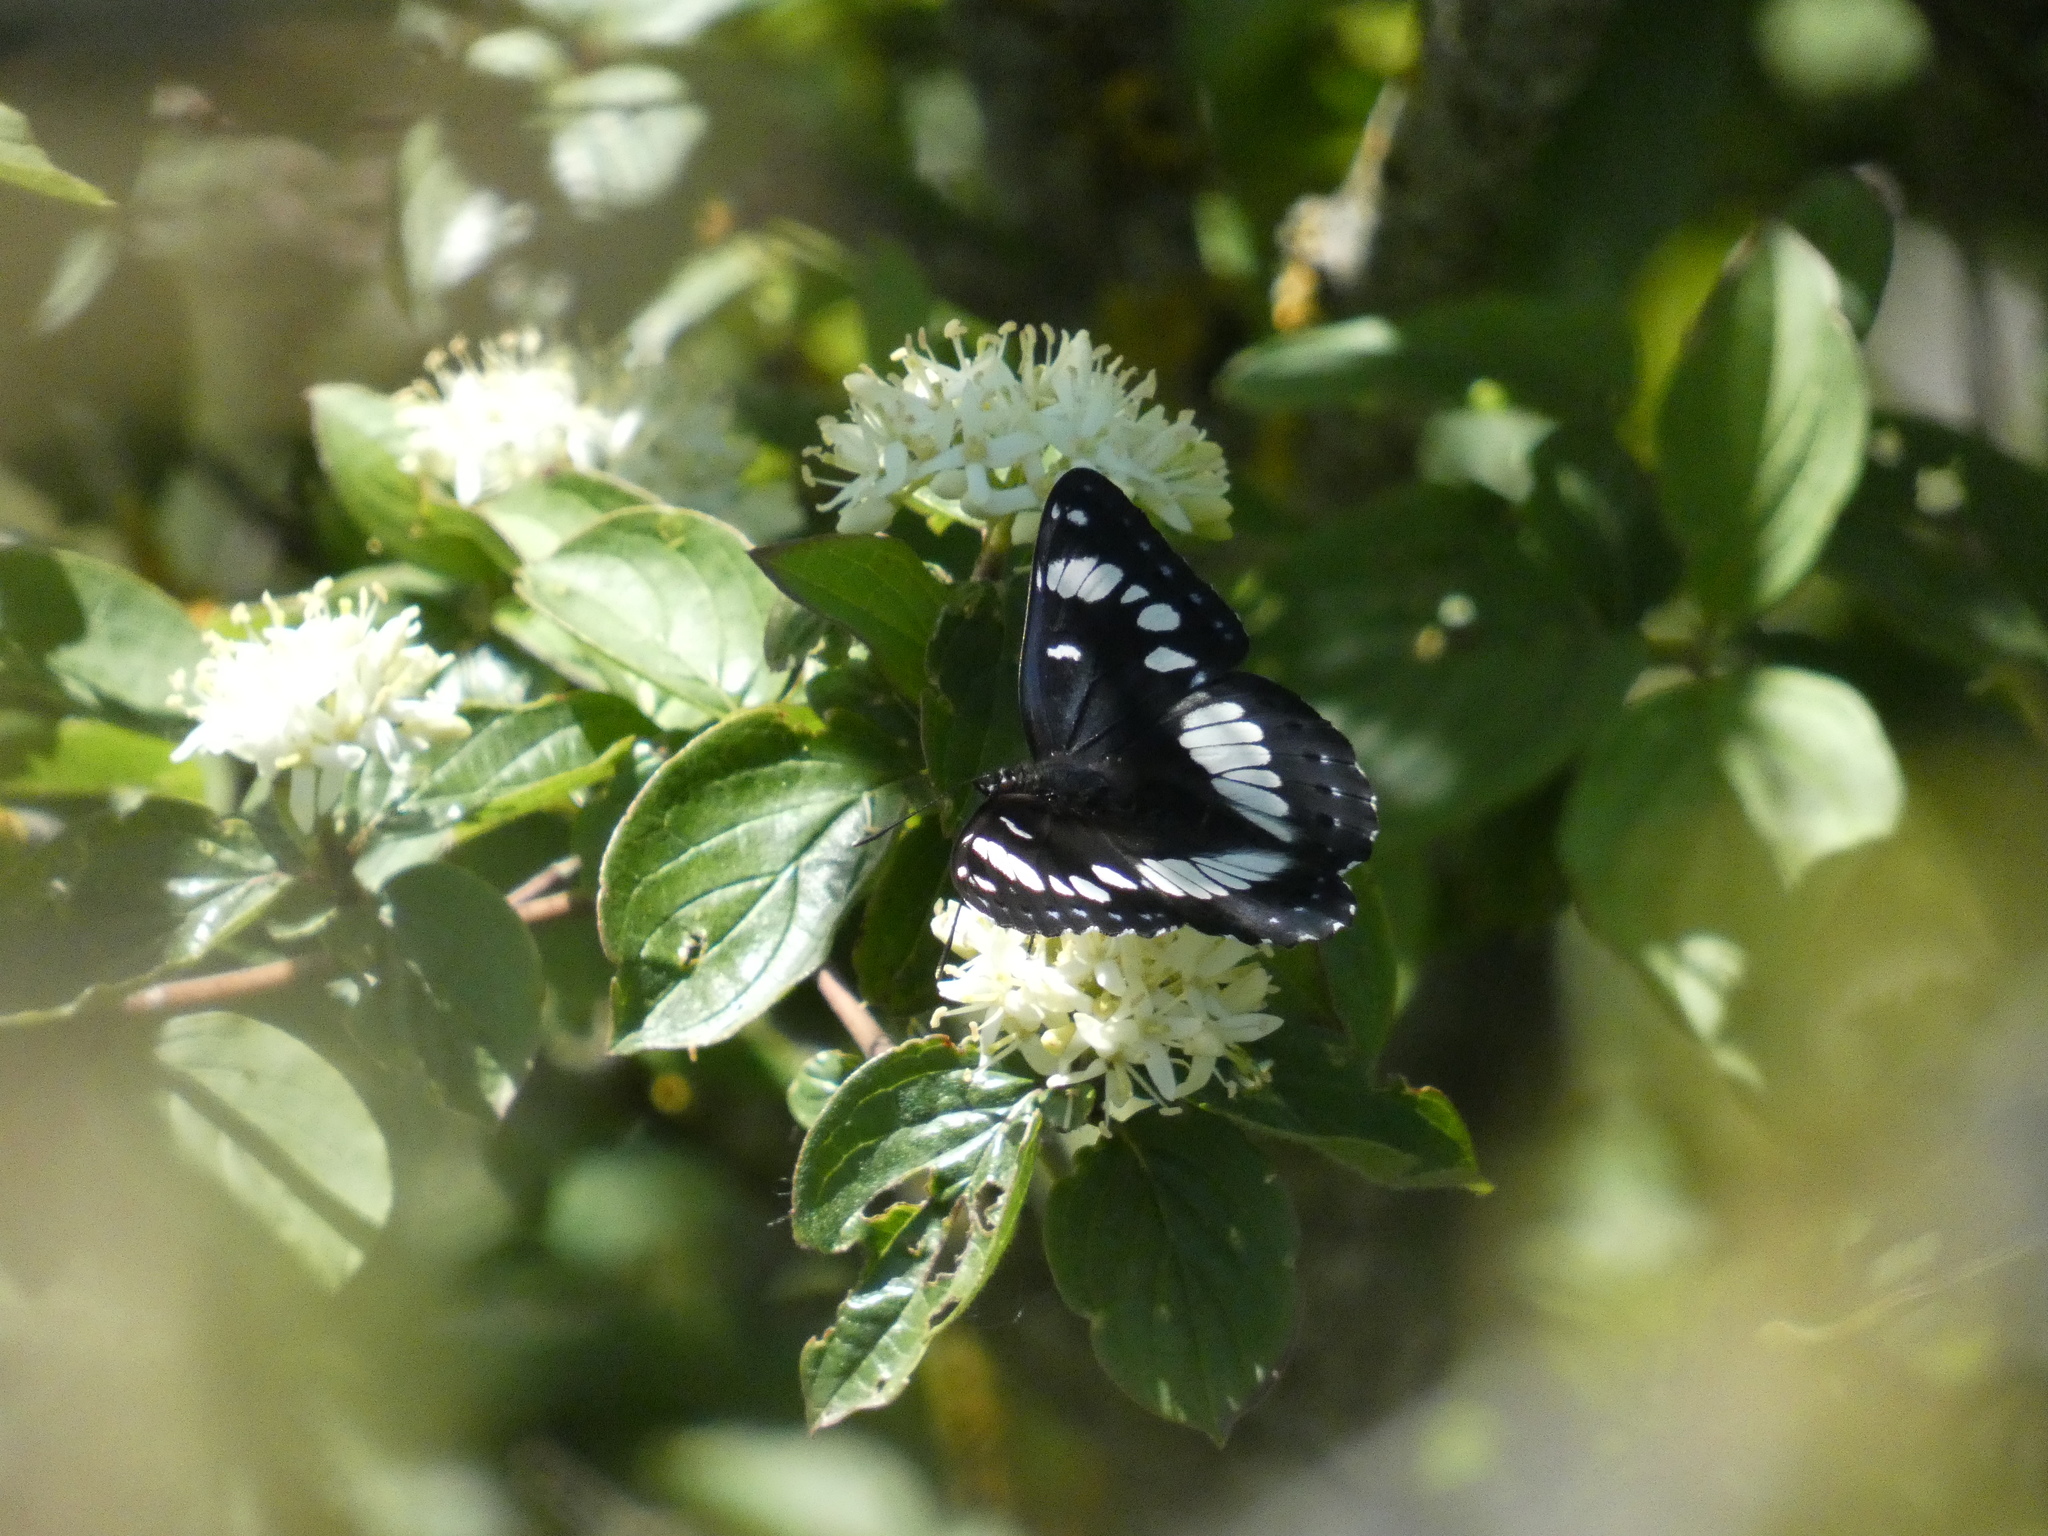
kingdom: Animalia
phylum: Arthropoda
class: Insecta
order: Lepidoptera
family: Nymphalidae
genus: Limenitis
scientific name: Limenitis reducta
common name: Southern white admiral
